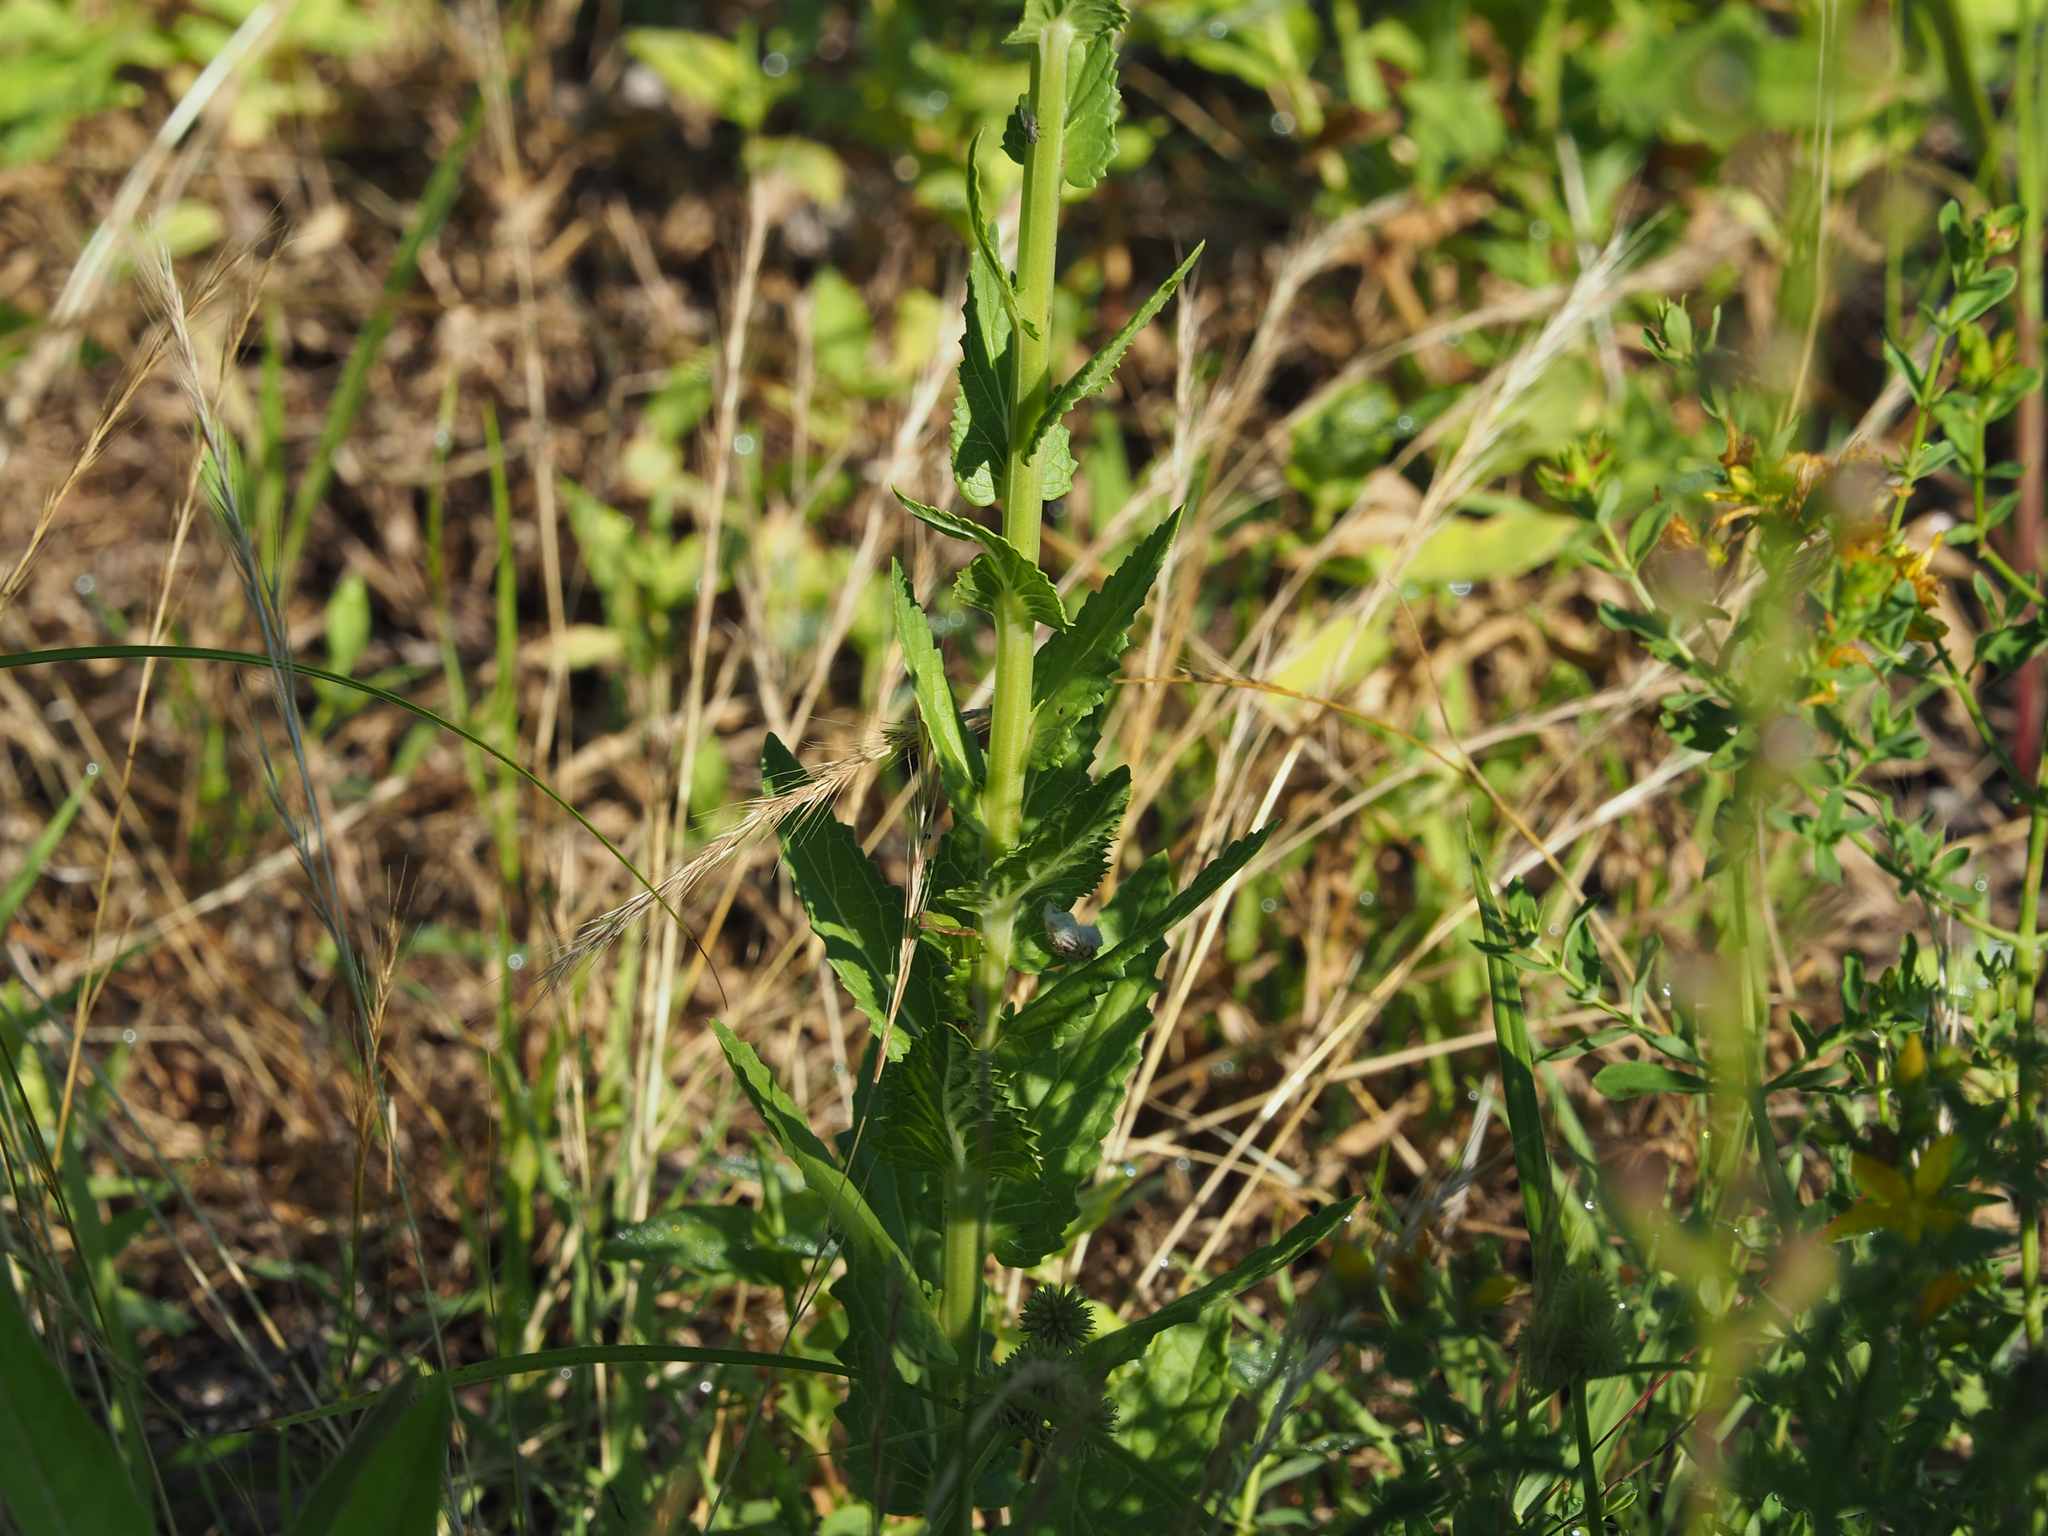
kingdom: Plantae
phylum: Tracheophyta
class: Magnoliopsida
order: Lamiales
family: Scrophulariaceae
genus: Verbascum
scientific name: Verbascum blattaria
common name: Moth mullein
